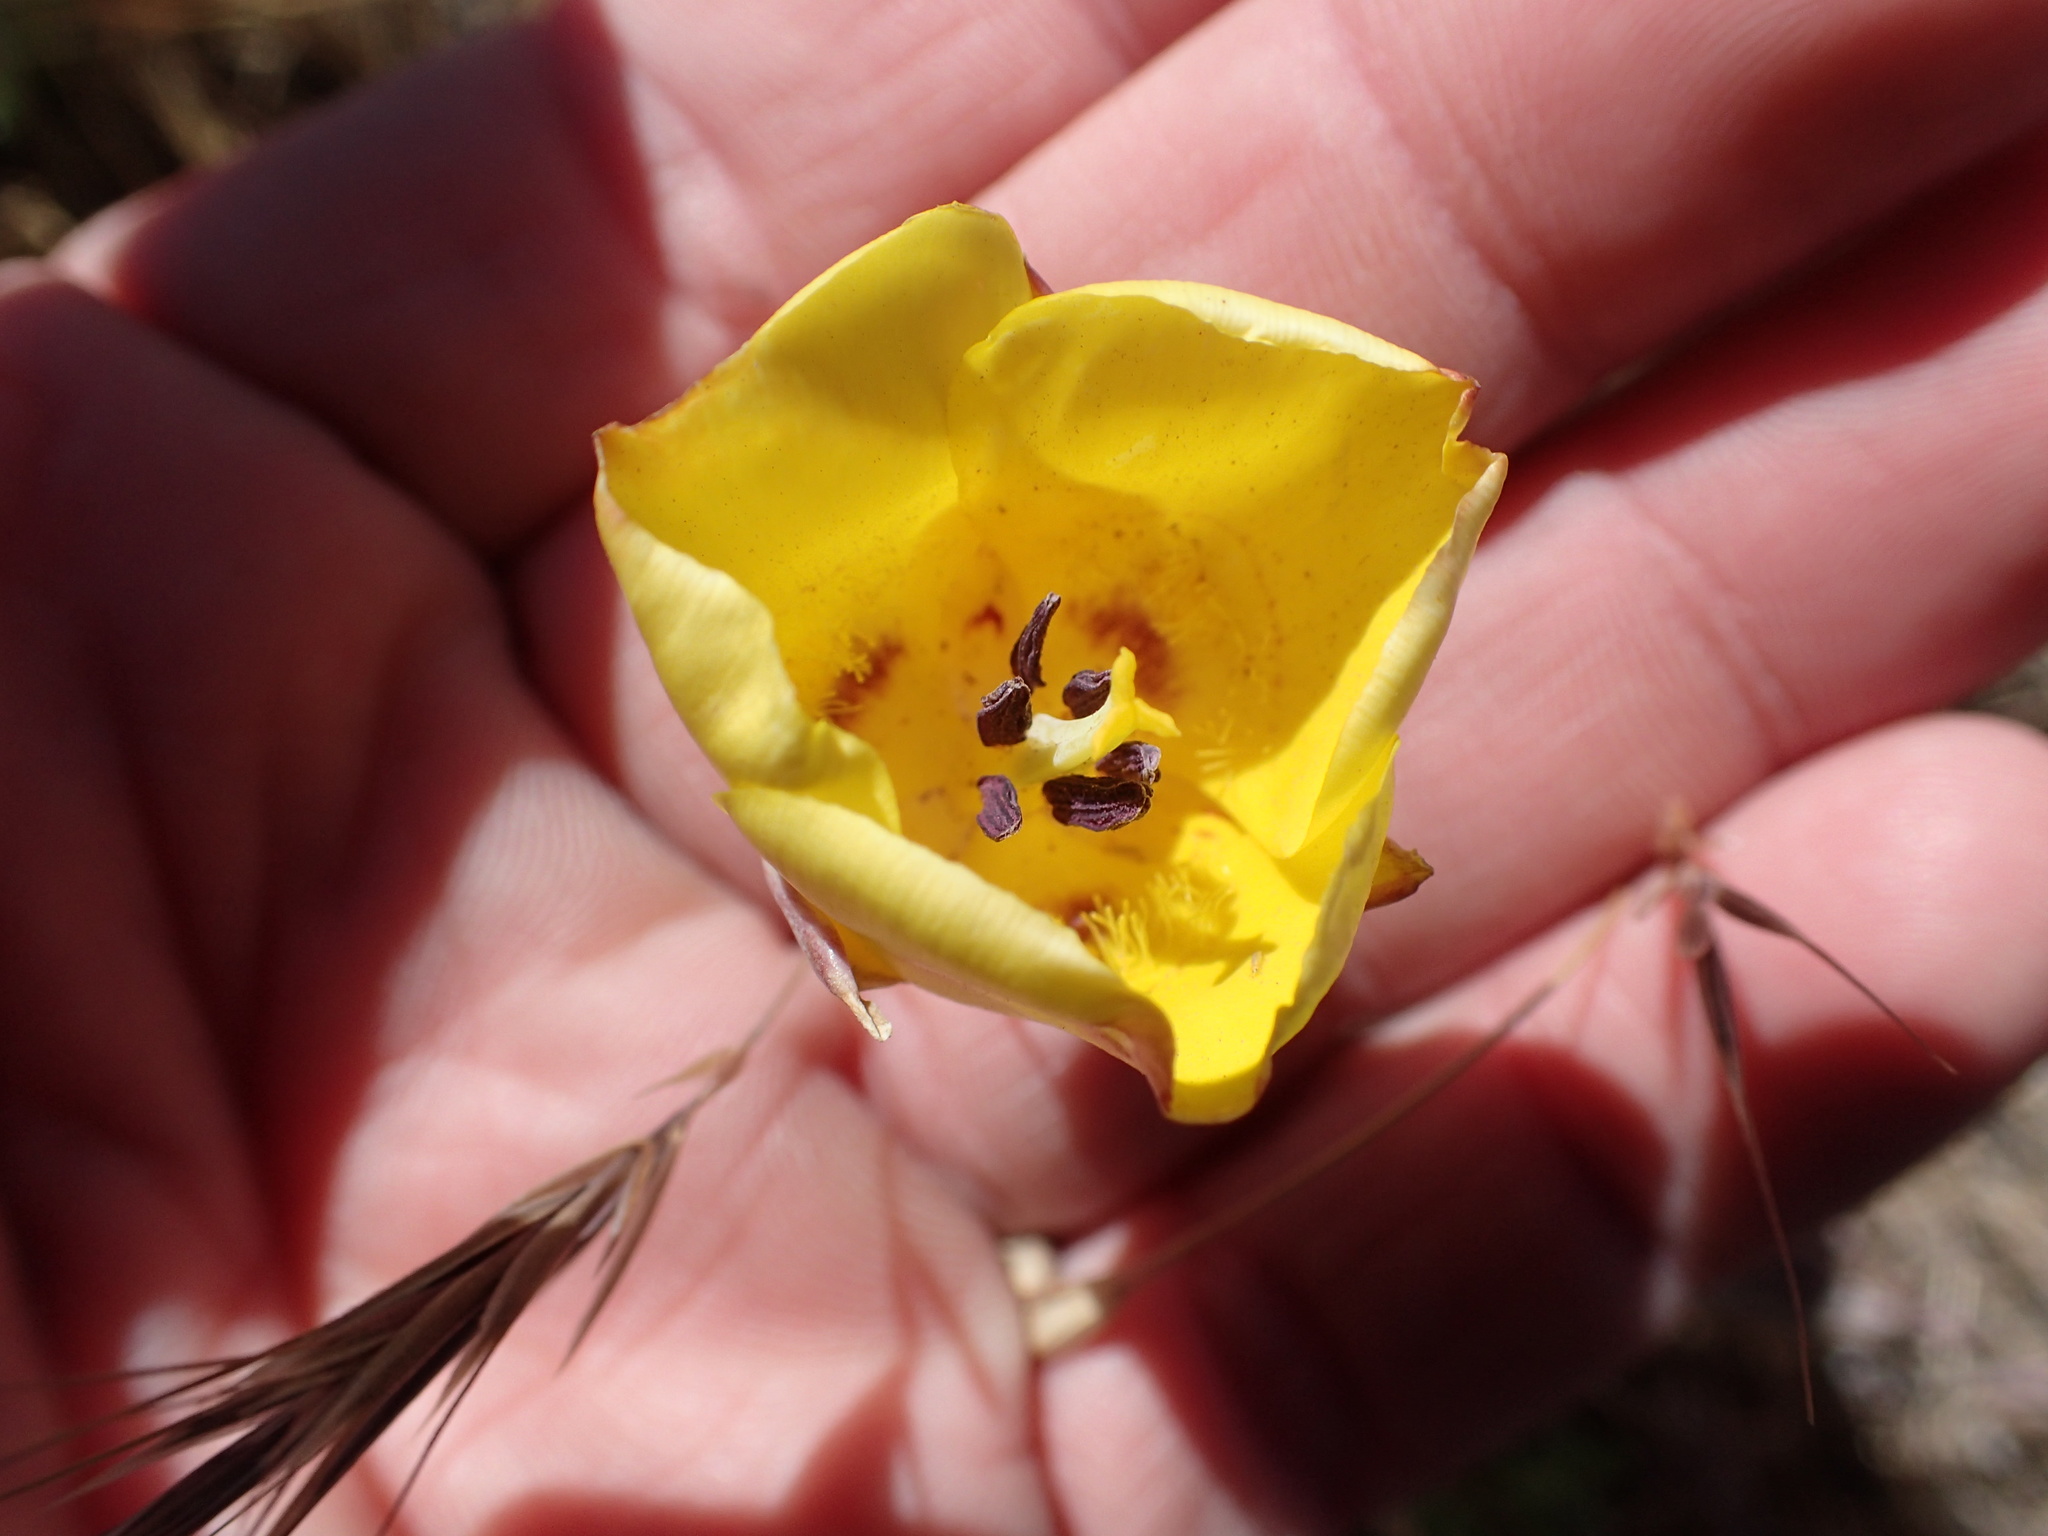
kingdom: Plantae
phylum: Tracheophyta
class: Liliopsida
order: Liliales
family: Liliaceae
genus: Calochortus
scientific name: Calochortus clavatus
